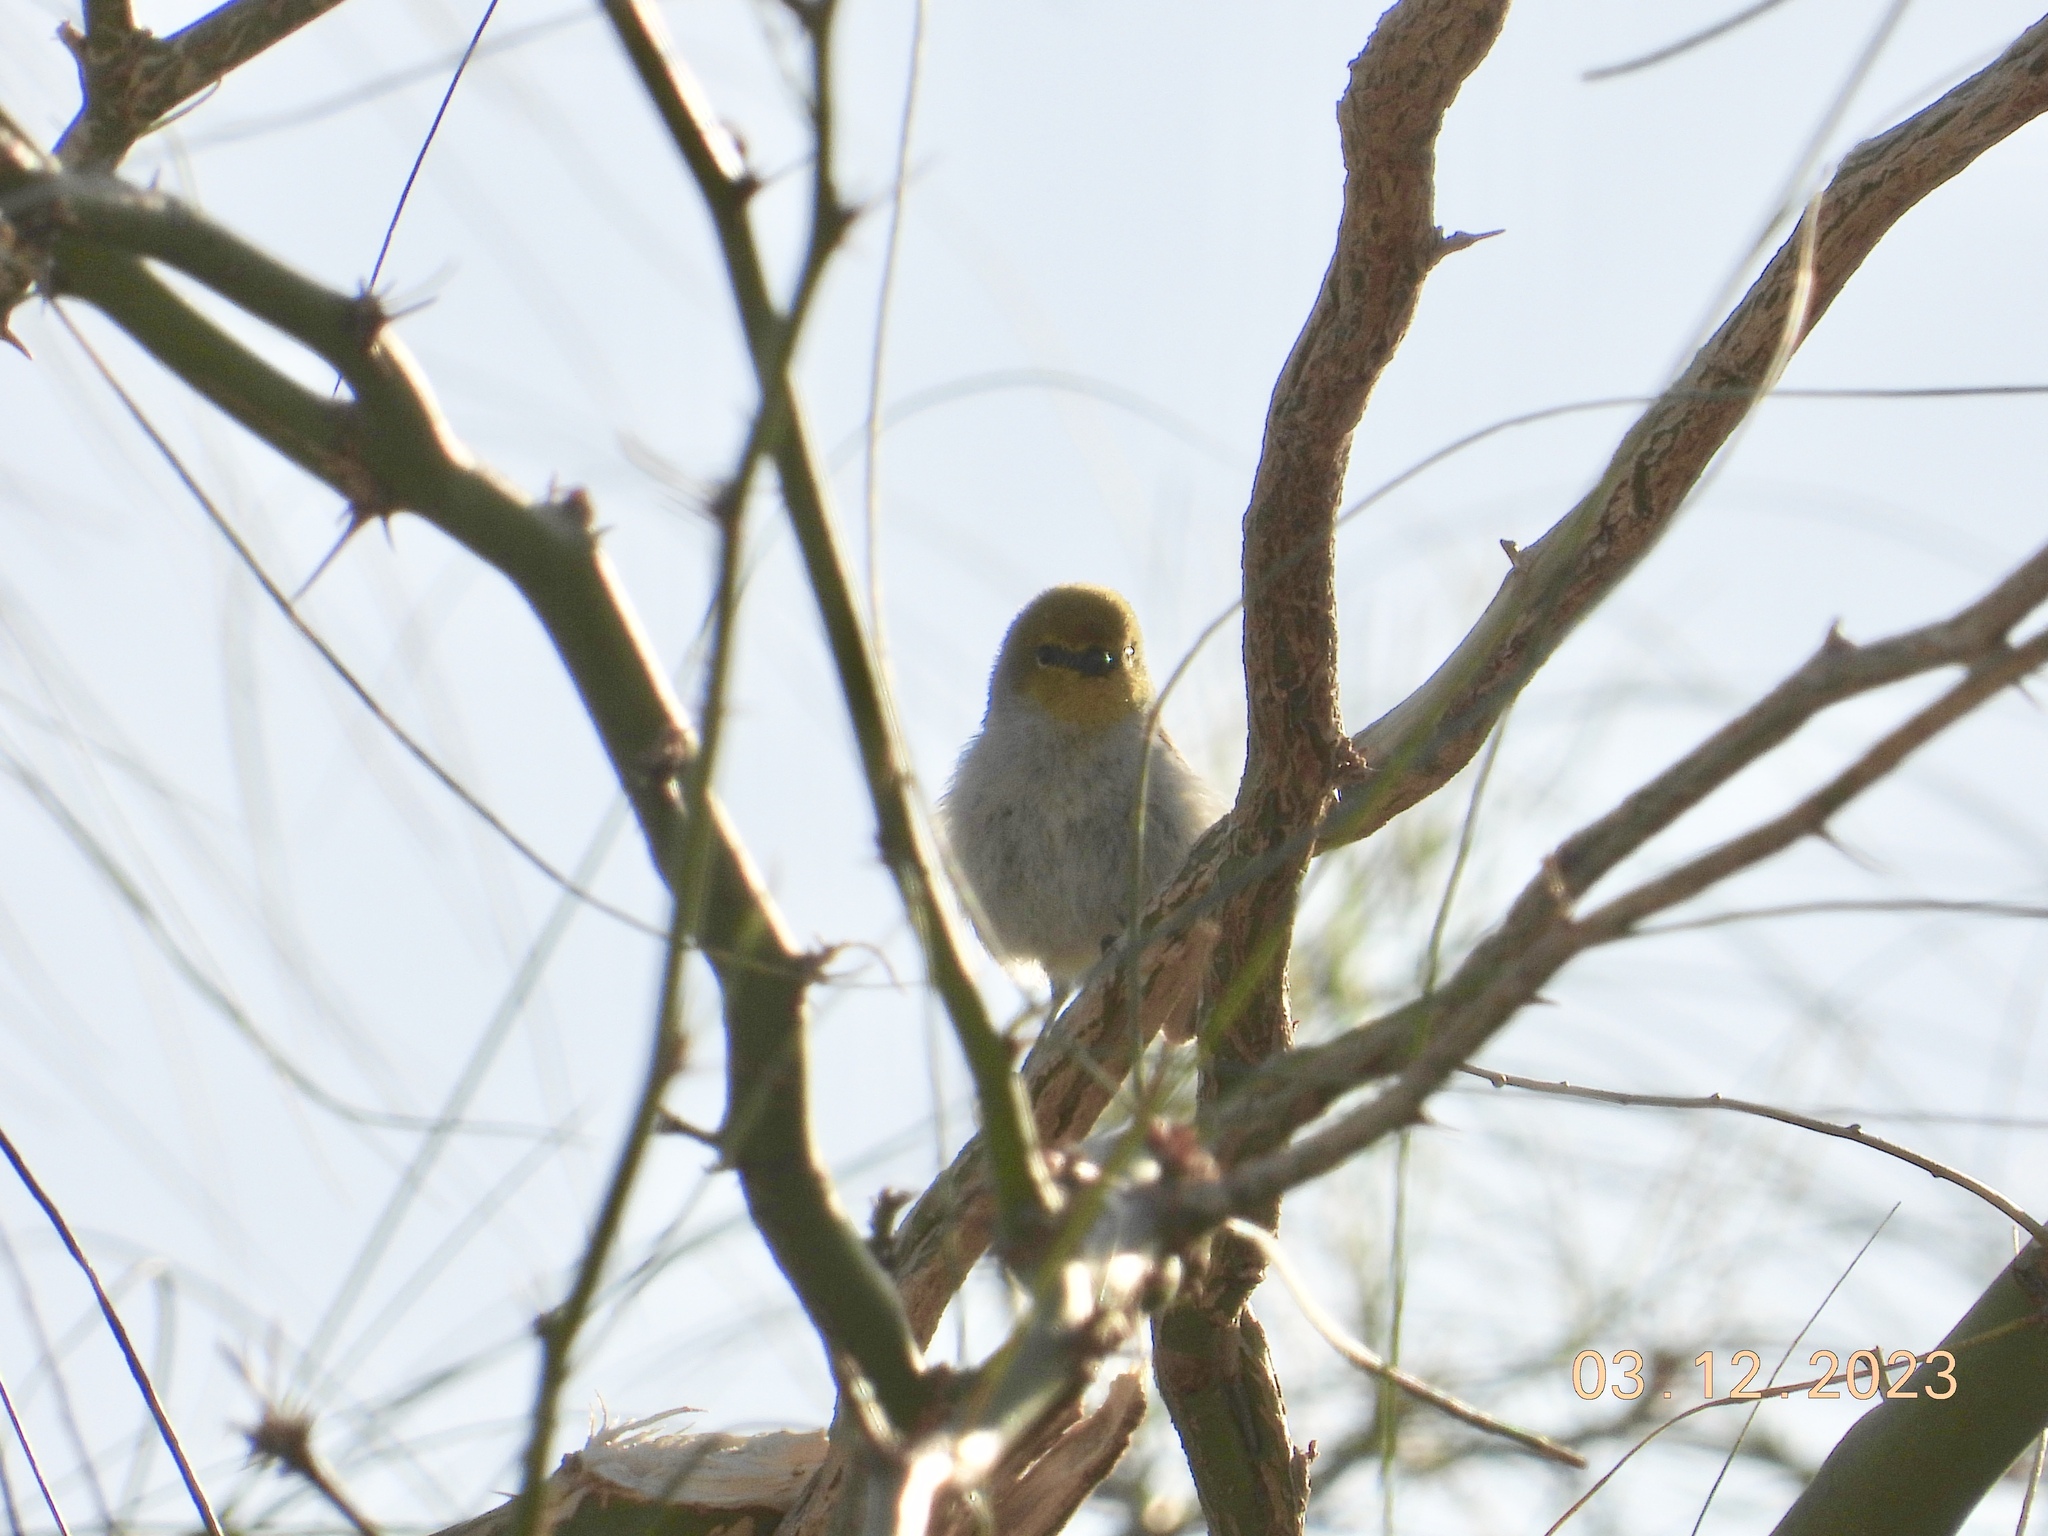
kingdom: Animalia
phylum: Chordata
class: Aves
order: Passeriformes
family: Remizidae
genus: Auriparus
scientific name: Auriparus flaviceps
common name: Verdin
